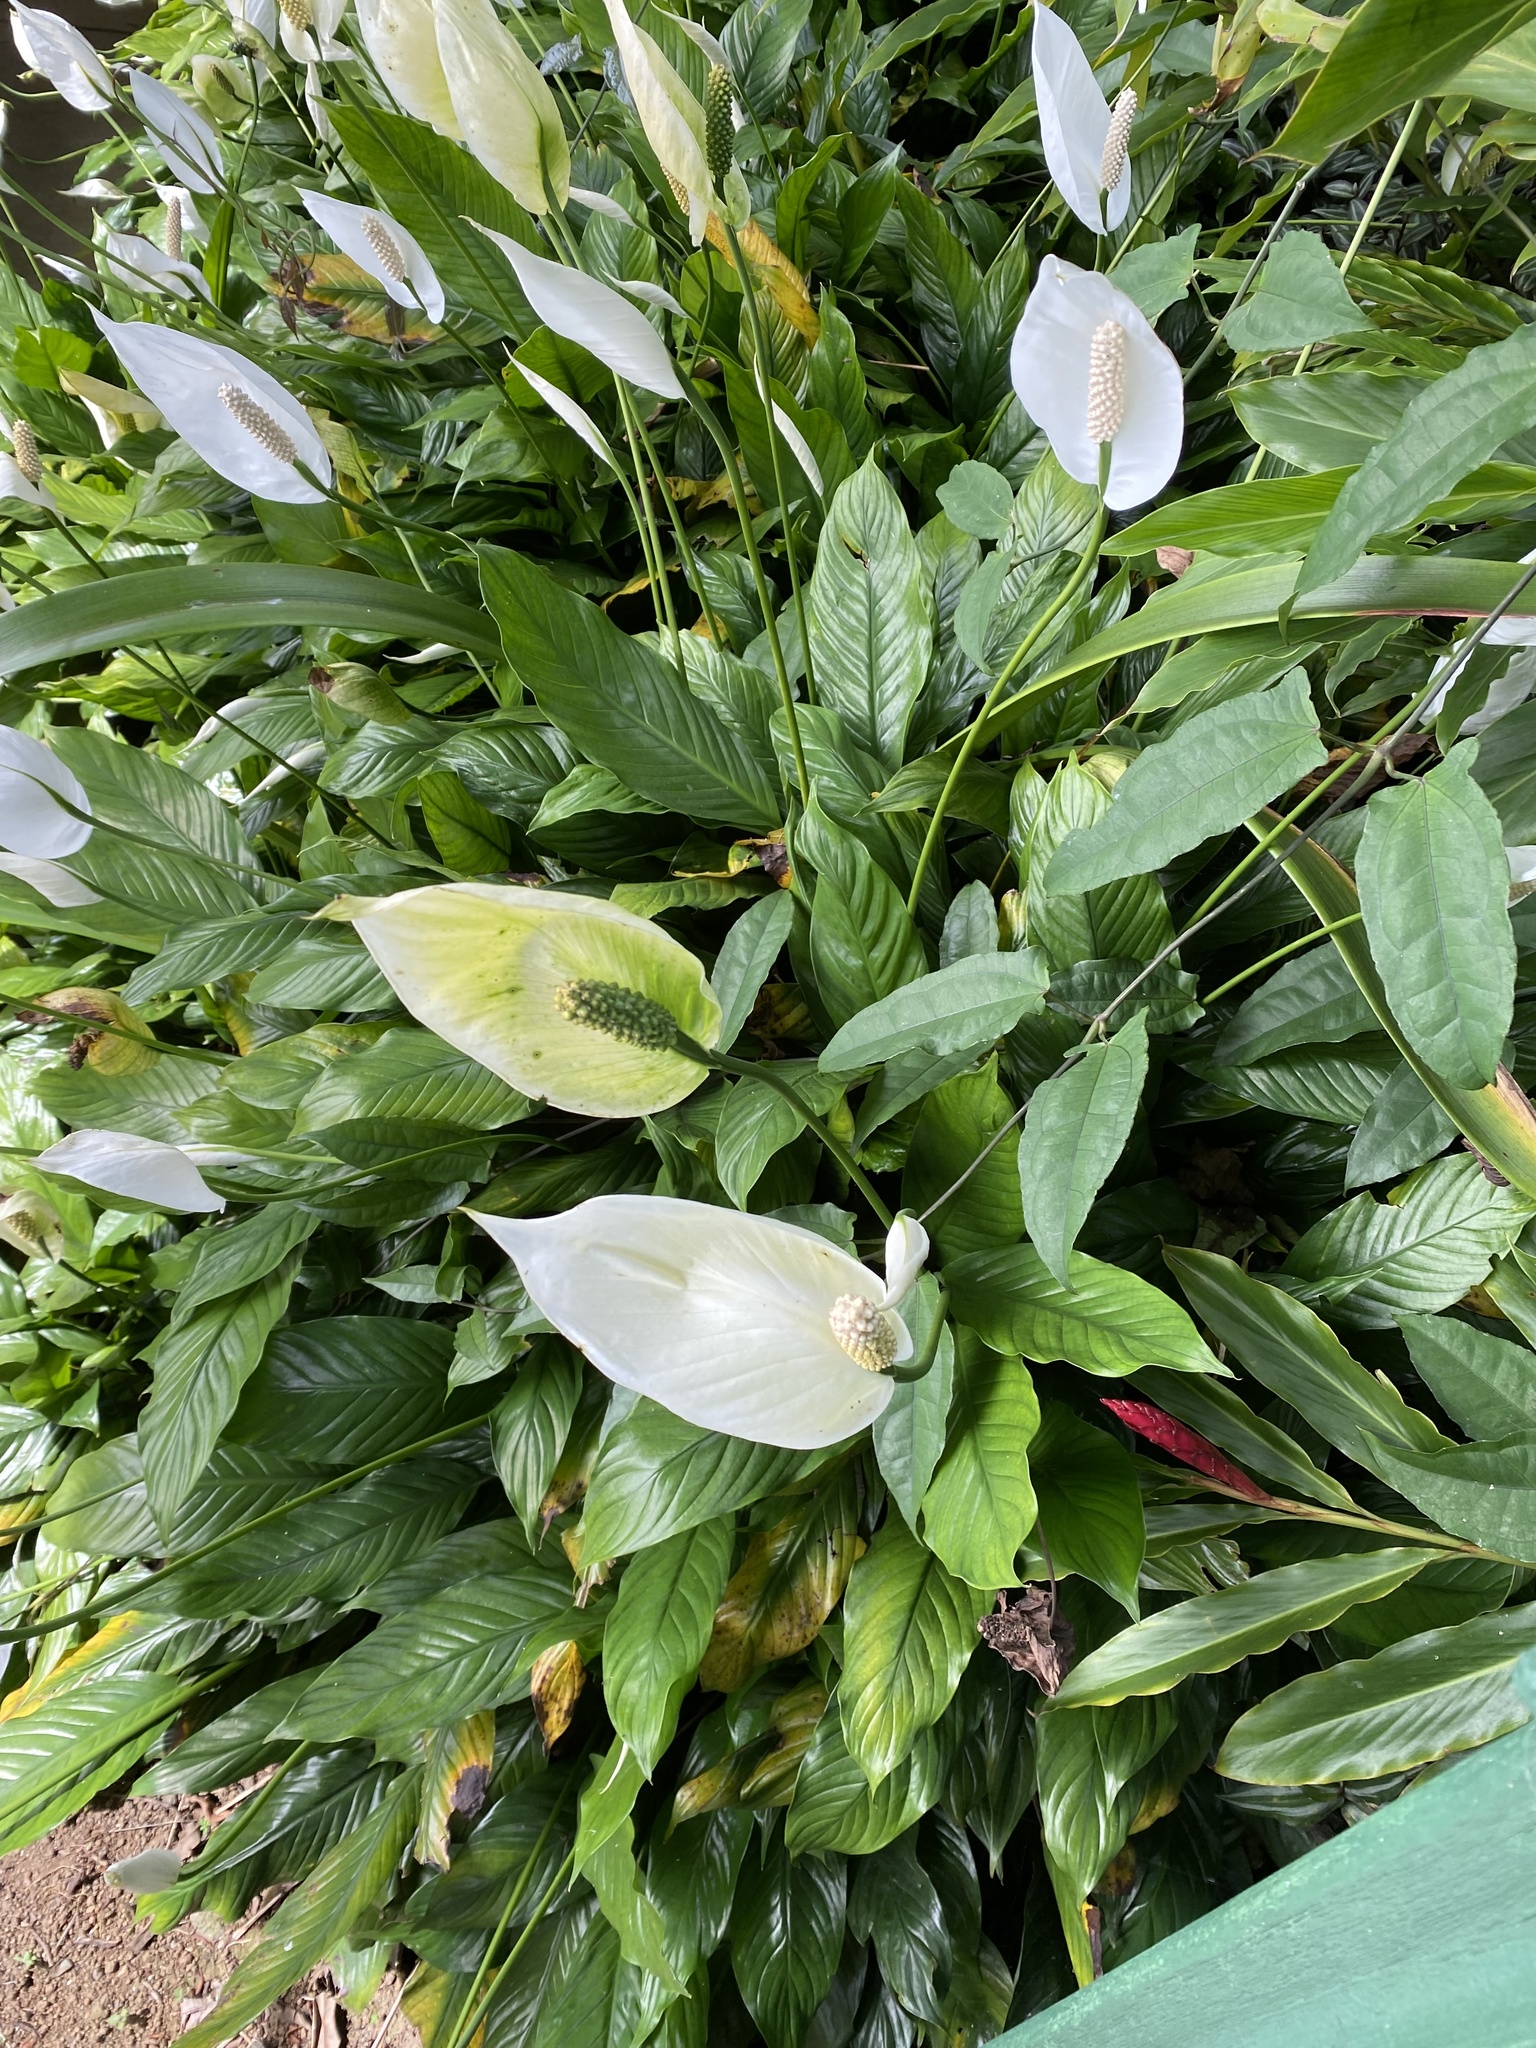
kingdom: Plantae
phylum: Tracheophyta
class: Liliopsida
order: Alismatales
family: Araceae
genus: Spathiphyllum
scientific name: Spathiphyllum wallisii
